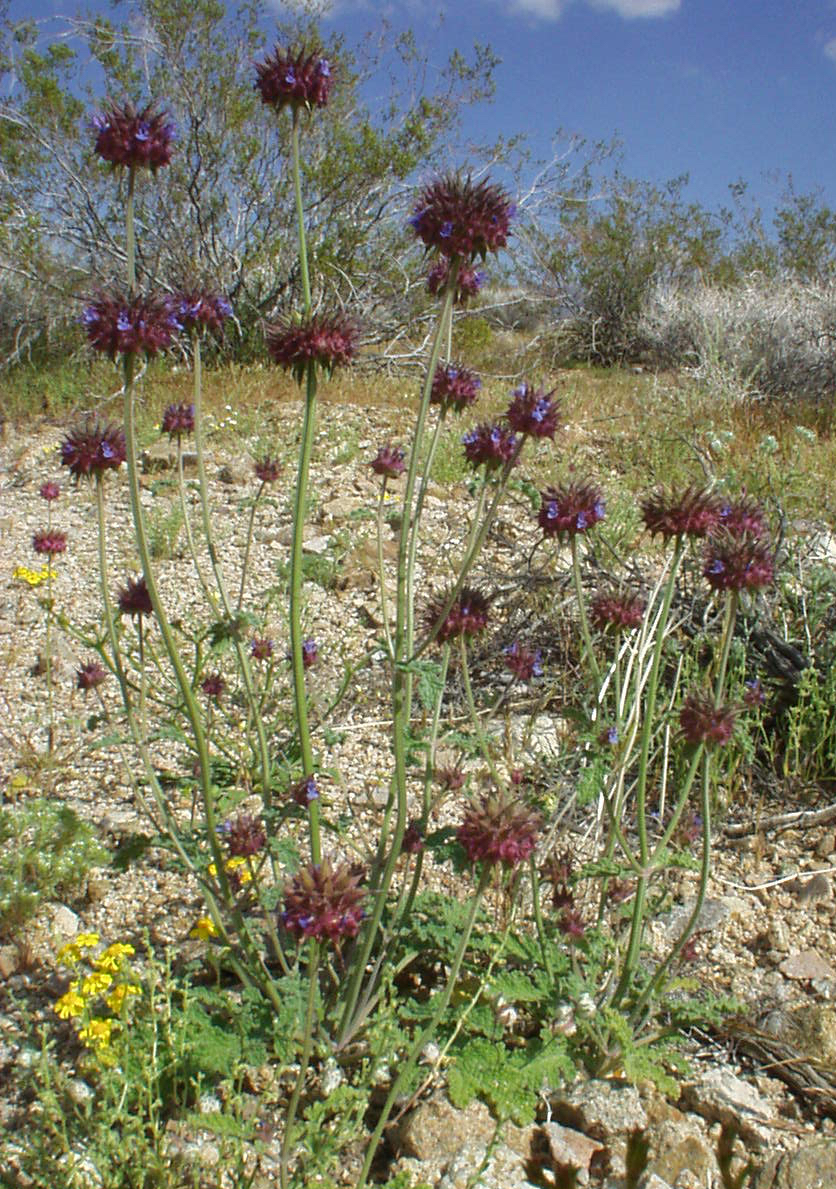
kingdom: Plantae
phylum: Tracheophyta
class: Magnoliopsida
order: Lamiales
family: Lamiaceae
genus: Salvia
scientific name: Salvia columbariae
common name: Chia
